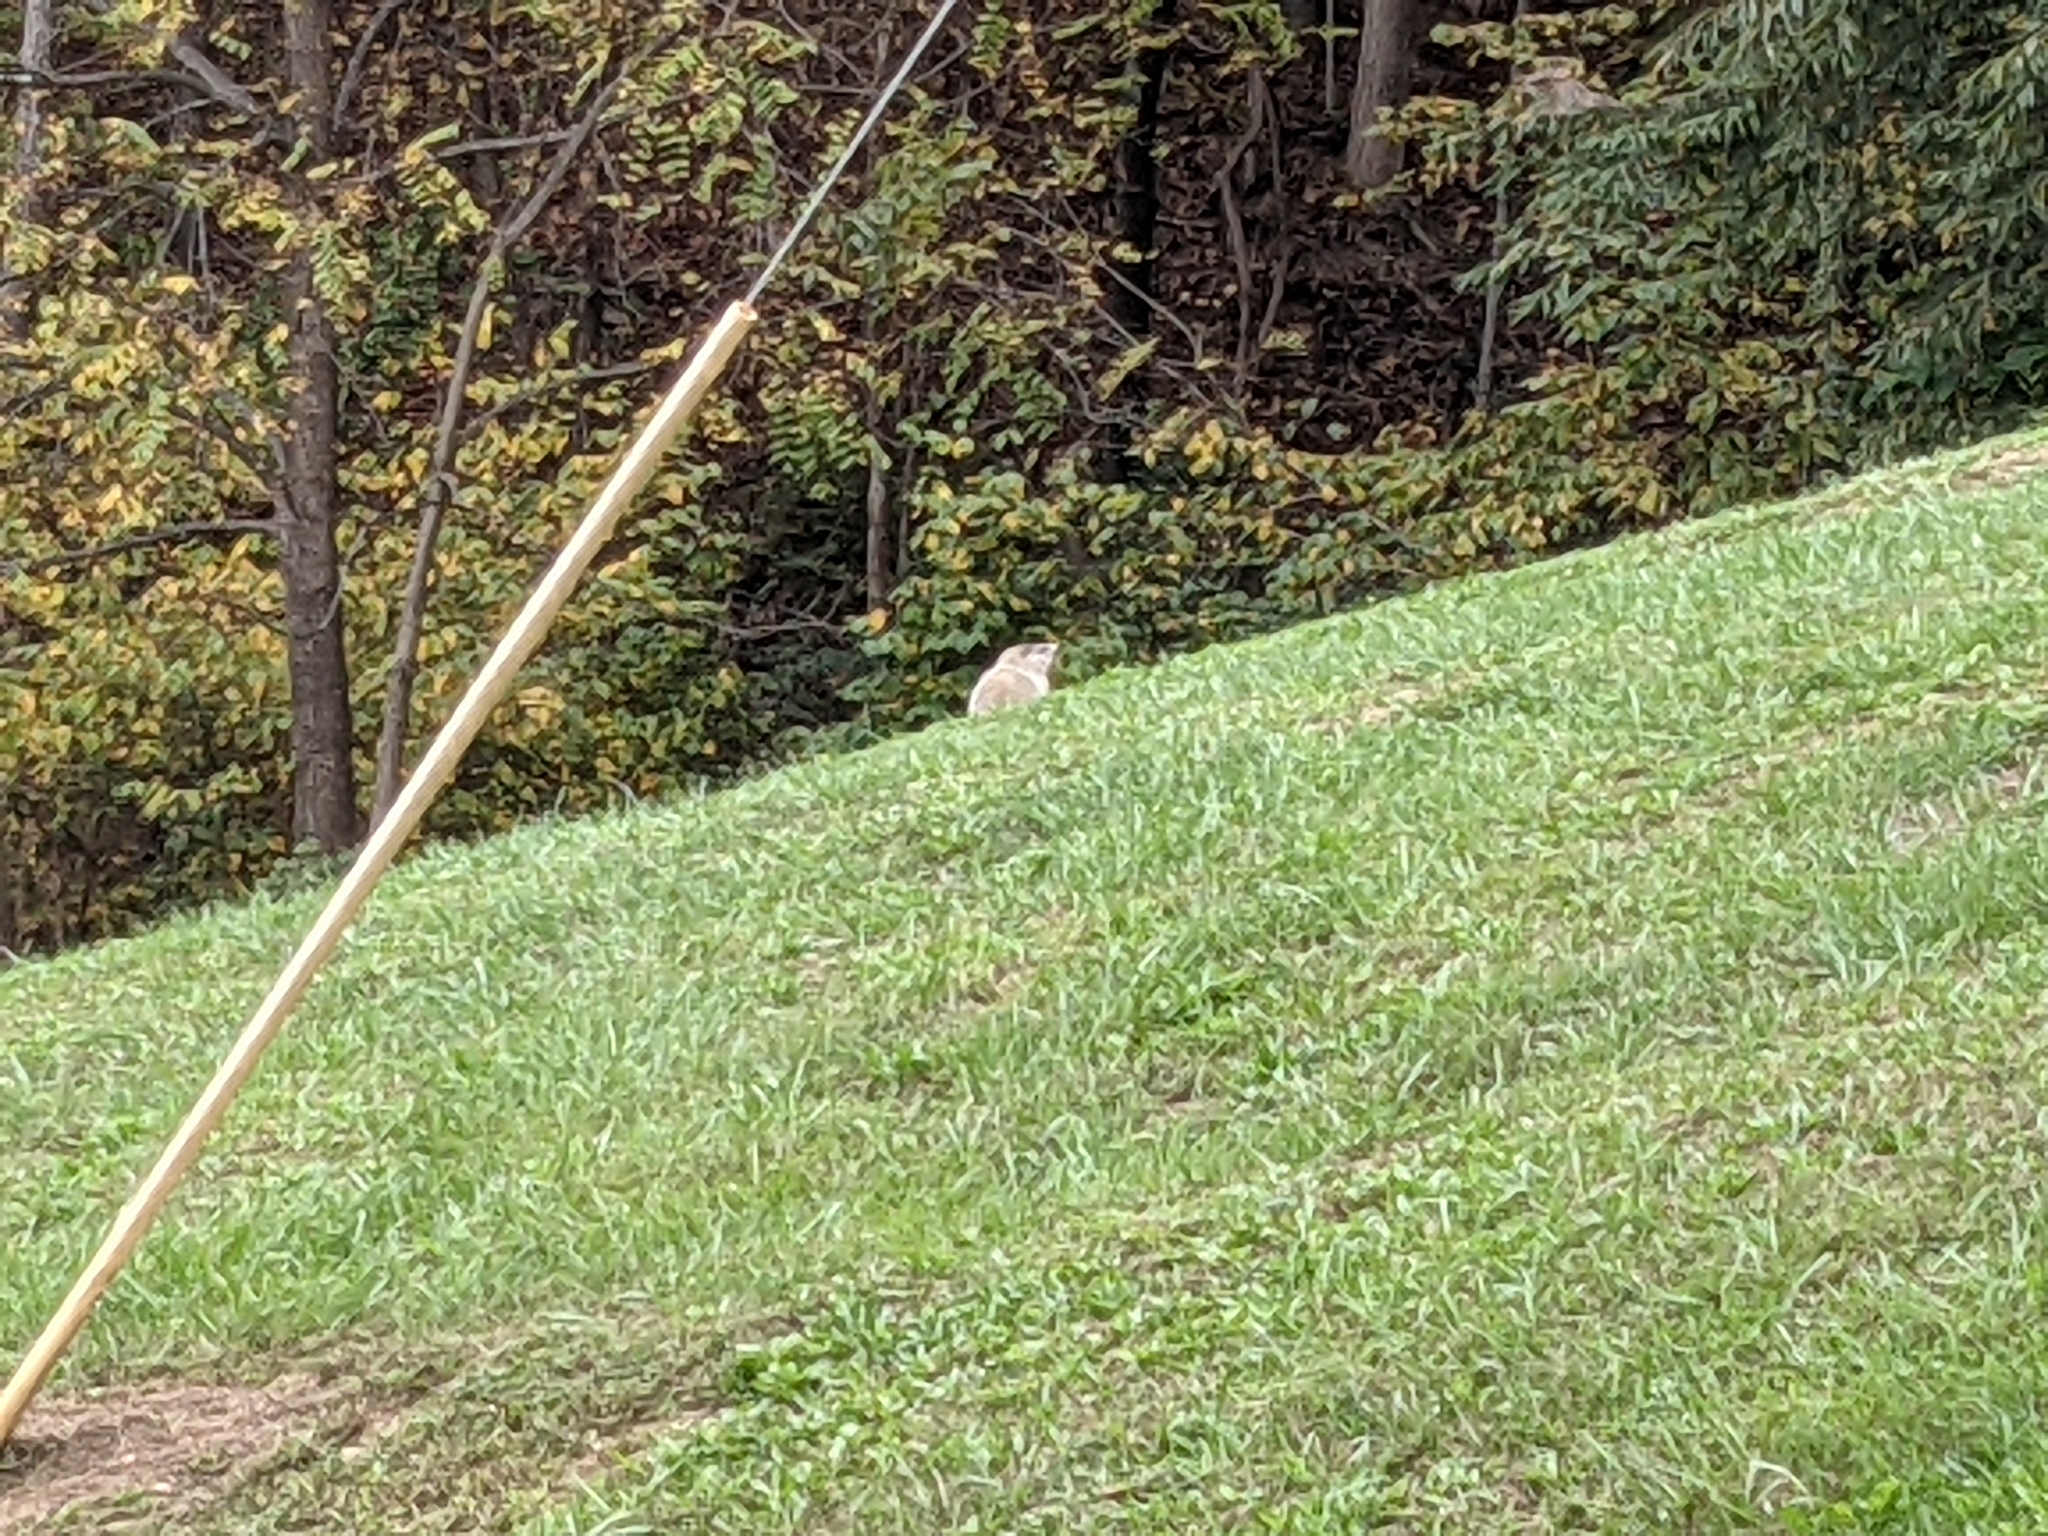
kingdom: Animalia
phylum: Chordata
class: Mammalia
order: Rodentia
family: Sciuridae
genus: Marmota
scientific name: Marmota monax
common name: Groundhog
